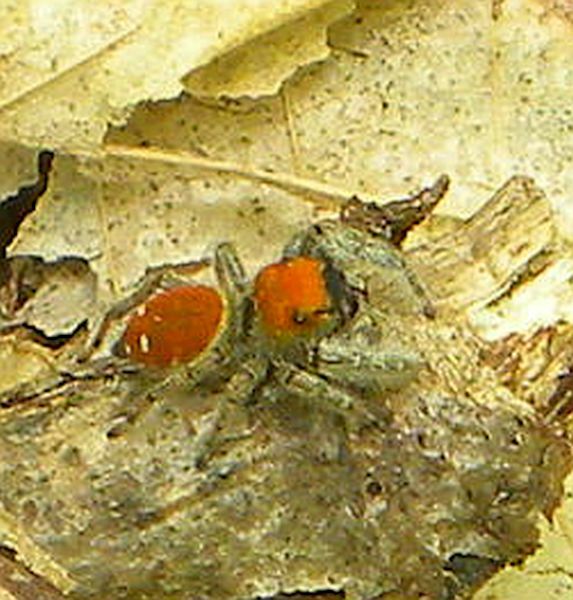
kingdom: Animalia
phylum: Arthropoda
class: Arachnida
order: Araneae
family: Salticidae
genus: Phidippus
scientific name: Phidippus whitmani
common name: Whitman's jumping spider
